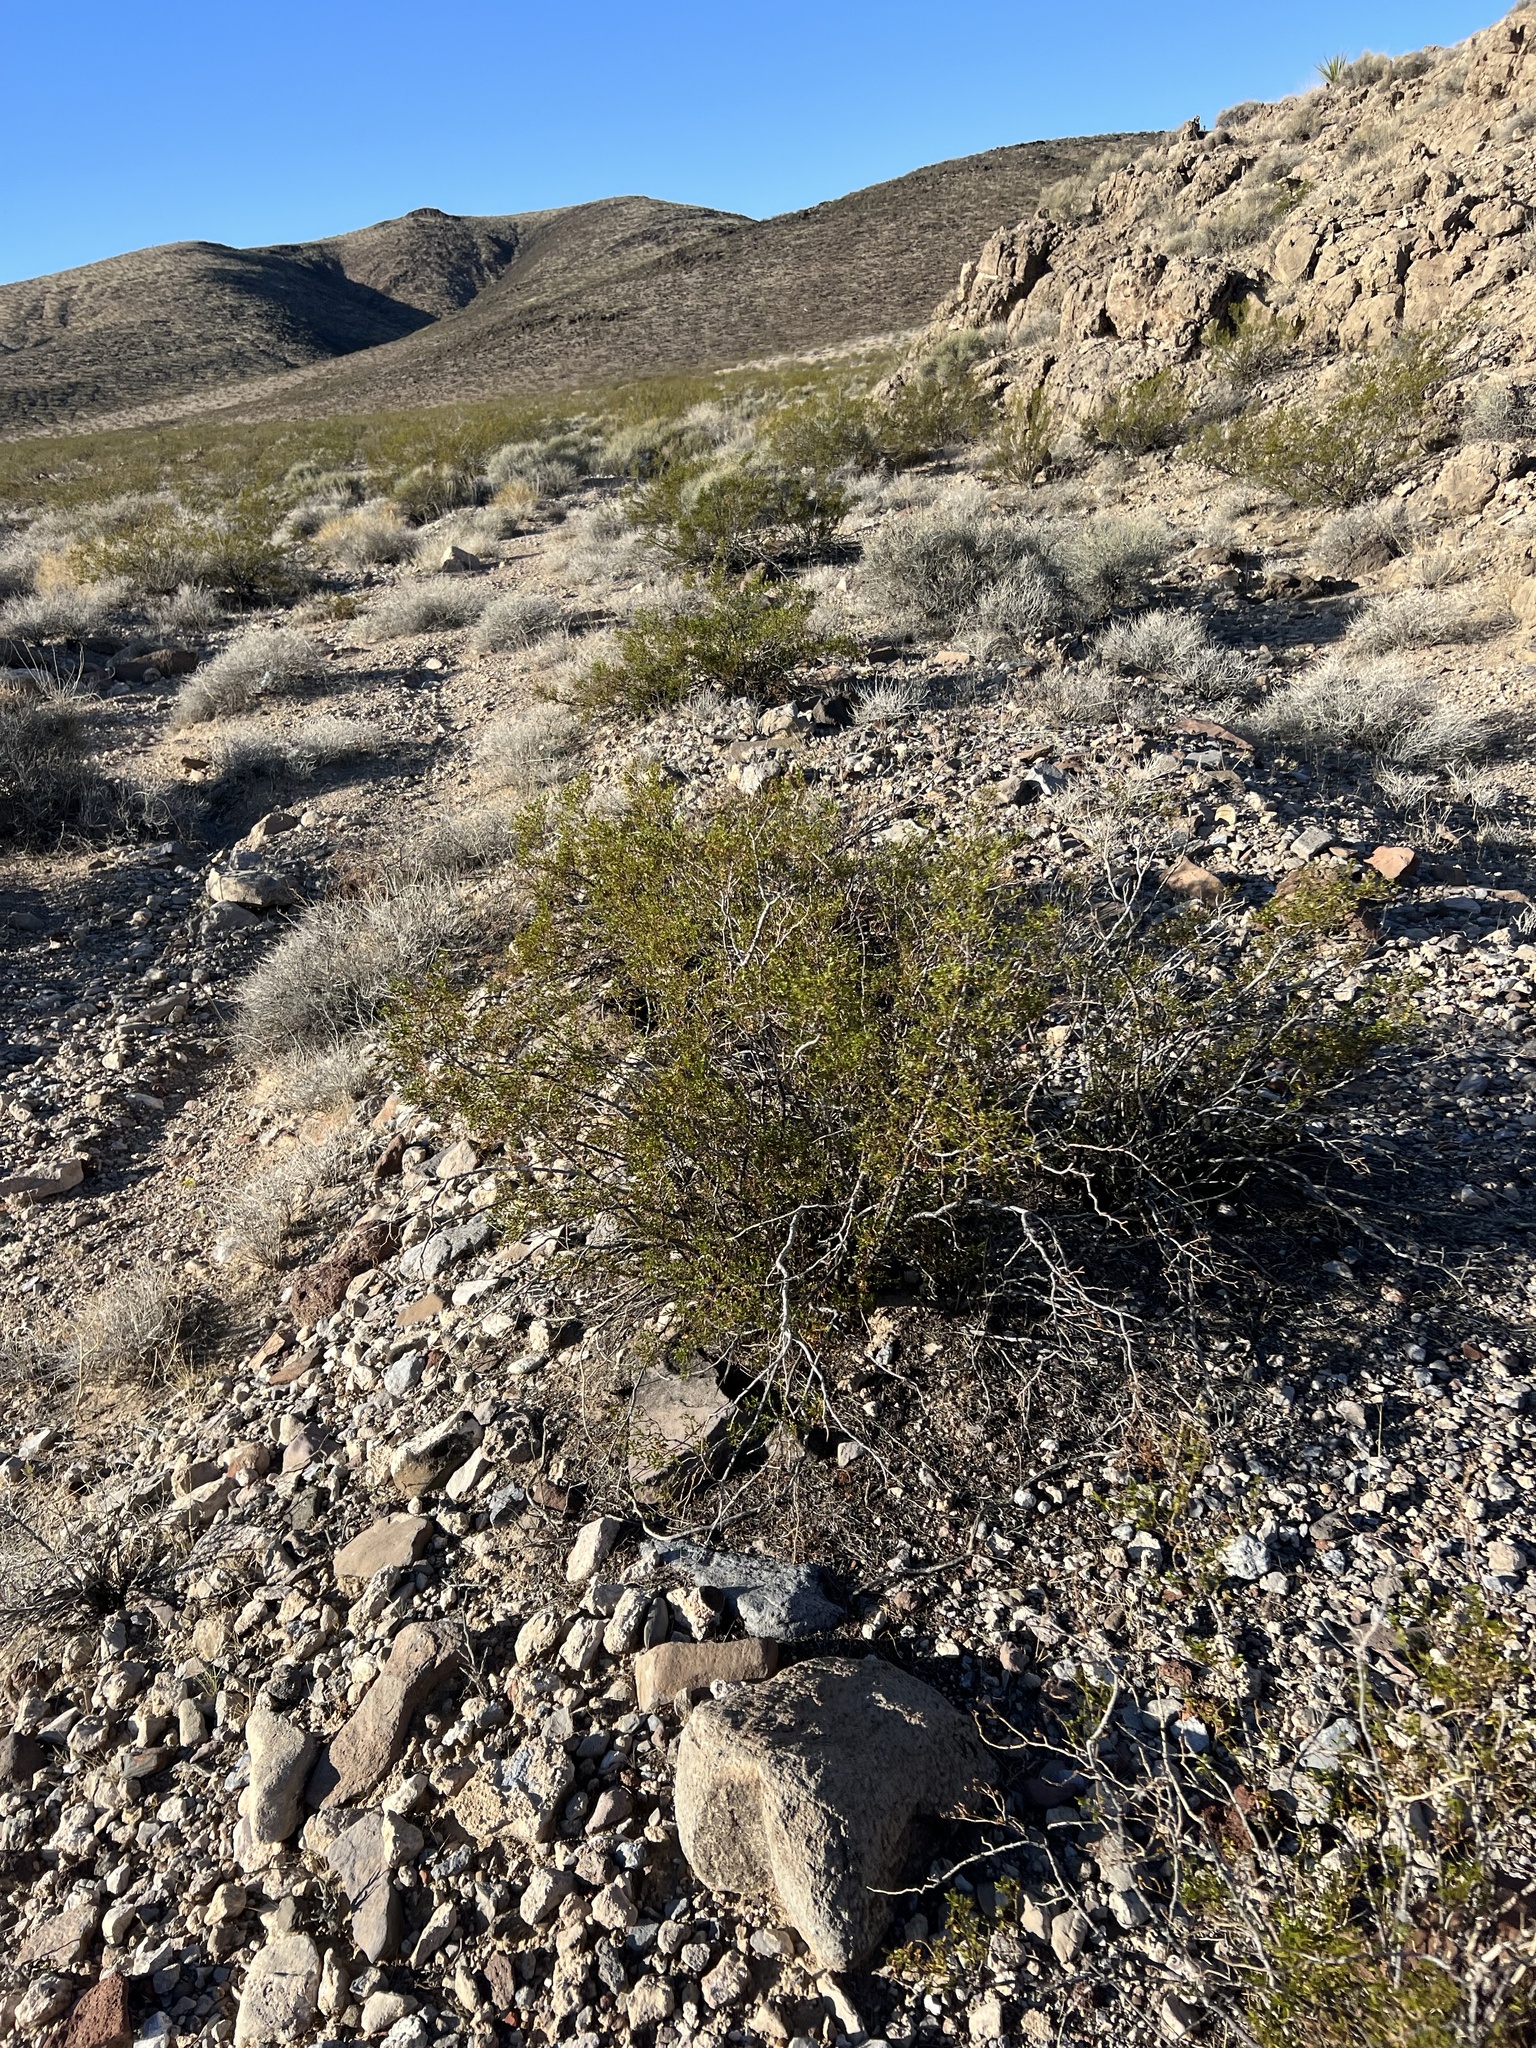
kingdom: Plantae
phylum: Tracheophyta
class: Magnoliopsida
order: Zygophyllales
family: Zygophyllaceae
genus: Larrea
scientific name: Larrea tridentata
